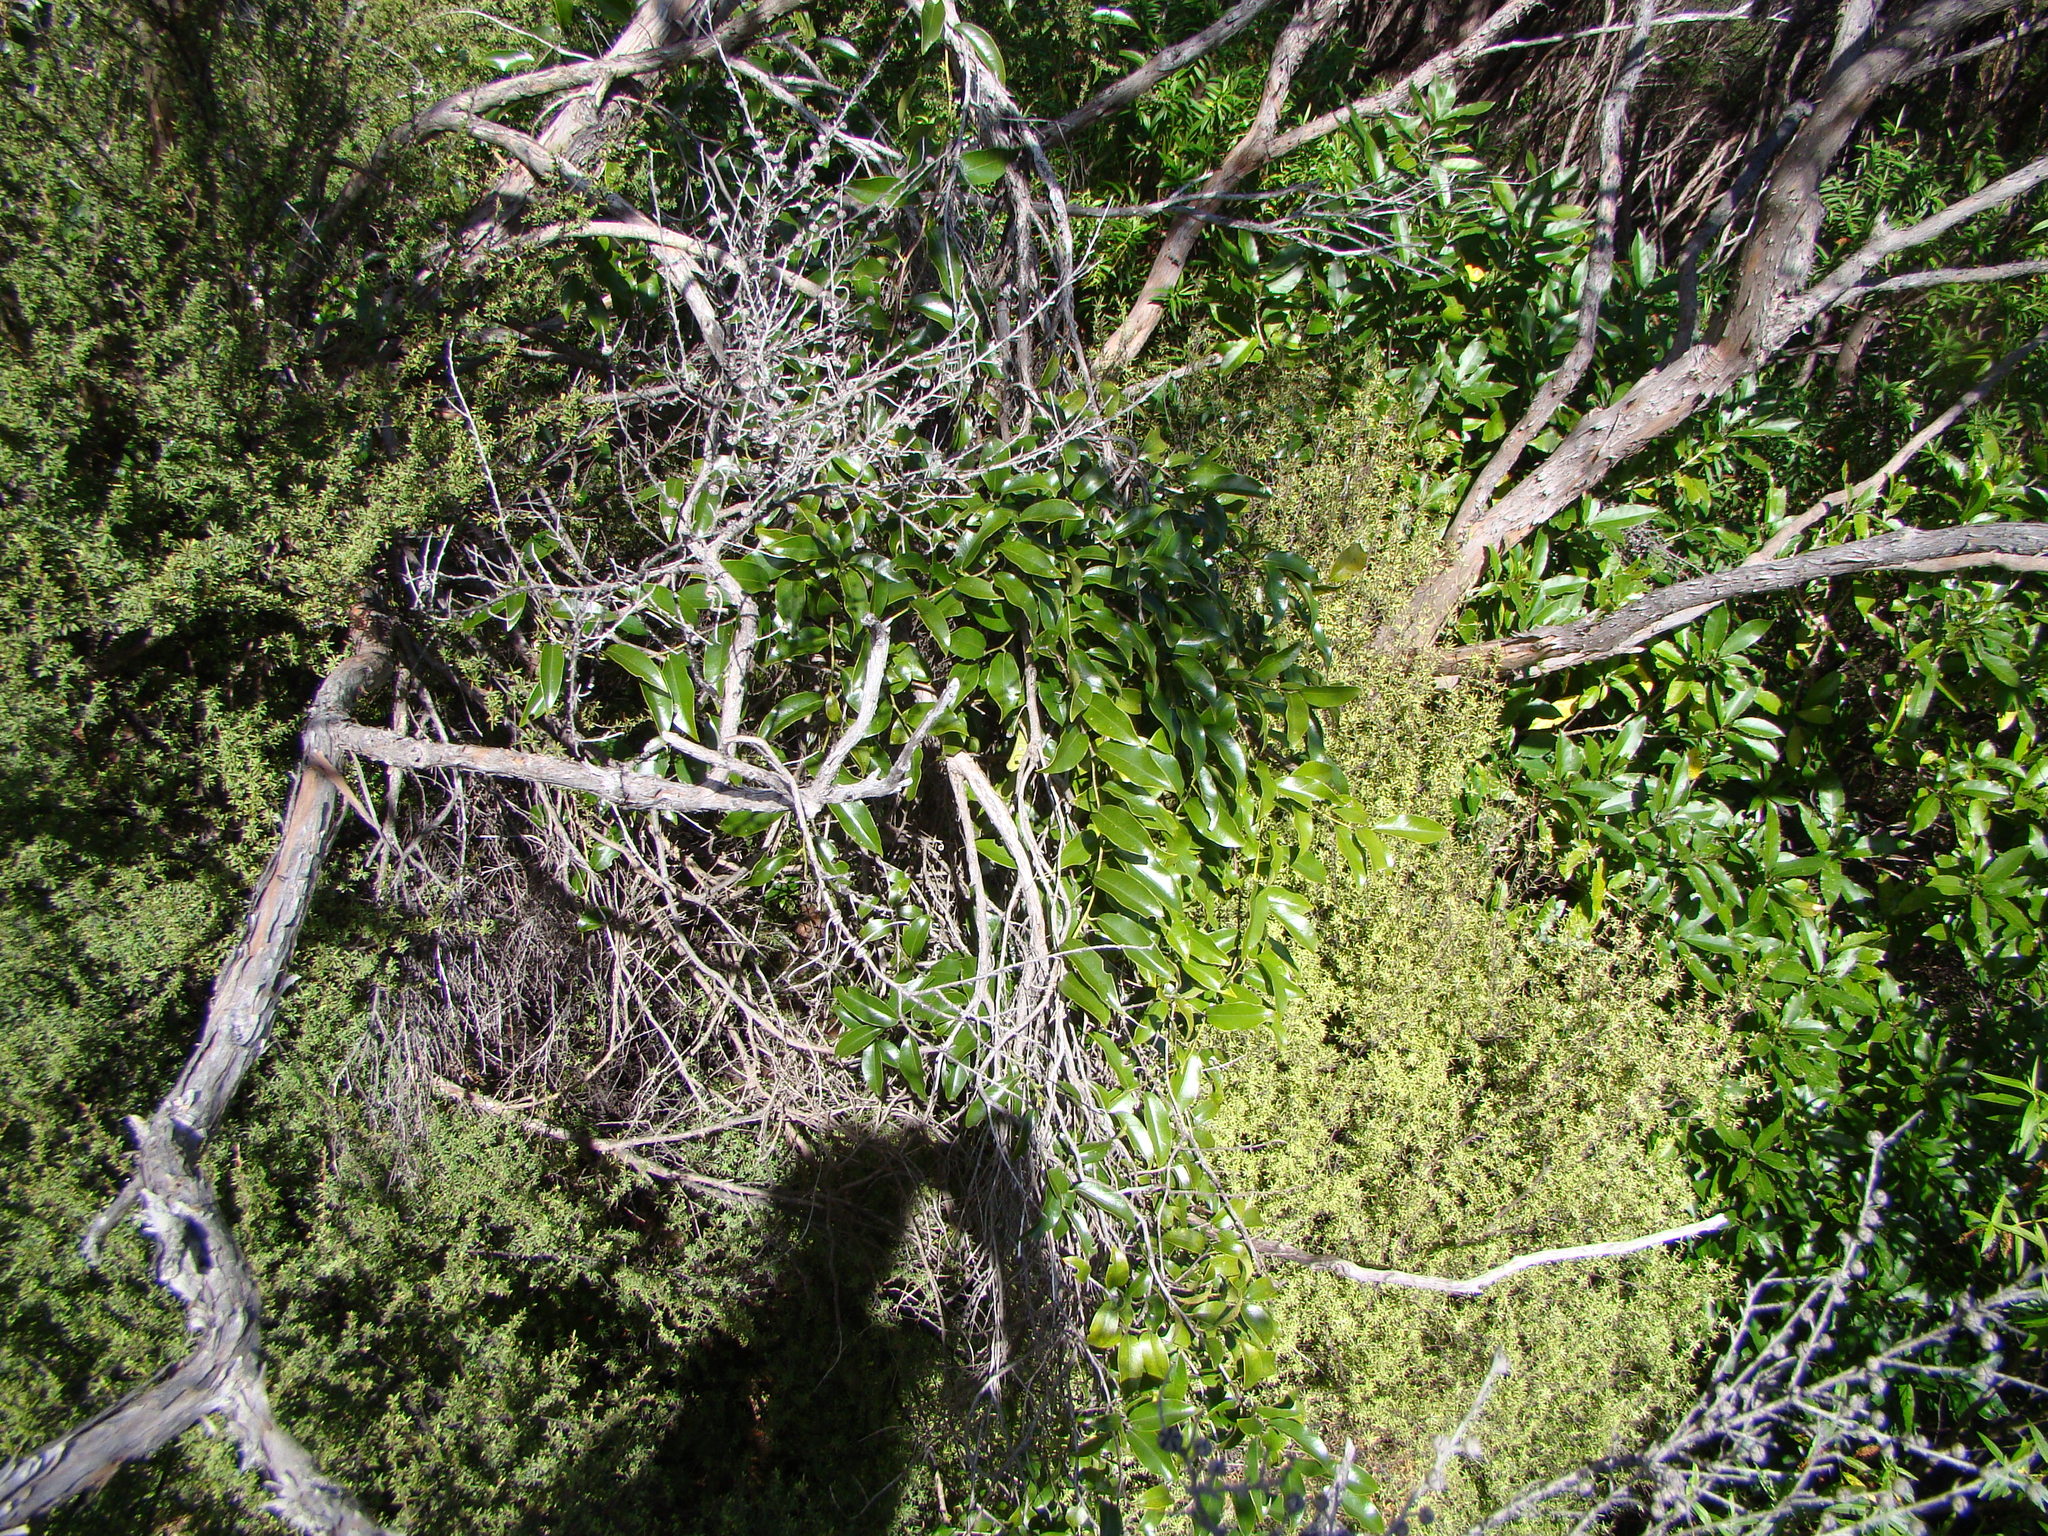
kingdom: Plantae
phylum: Tracheophyta
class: Magnoliopsida
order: Malpighiales
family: Passifloraceae
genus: Passiflora
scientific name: Passiflora tetrandra
